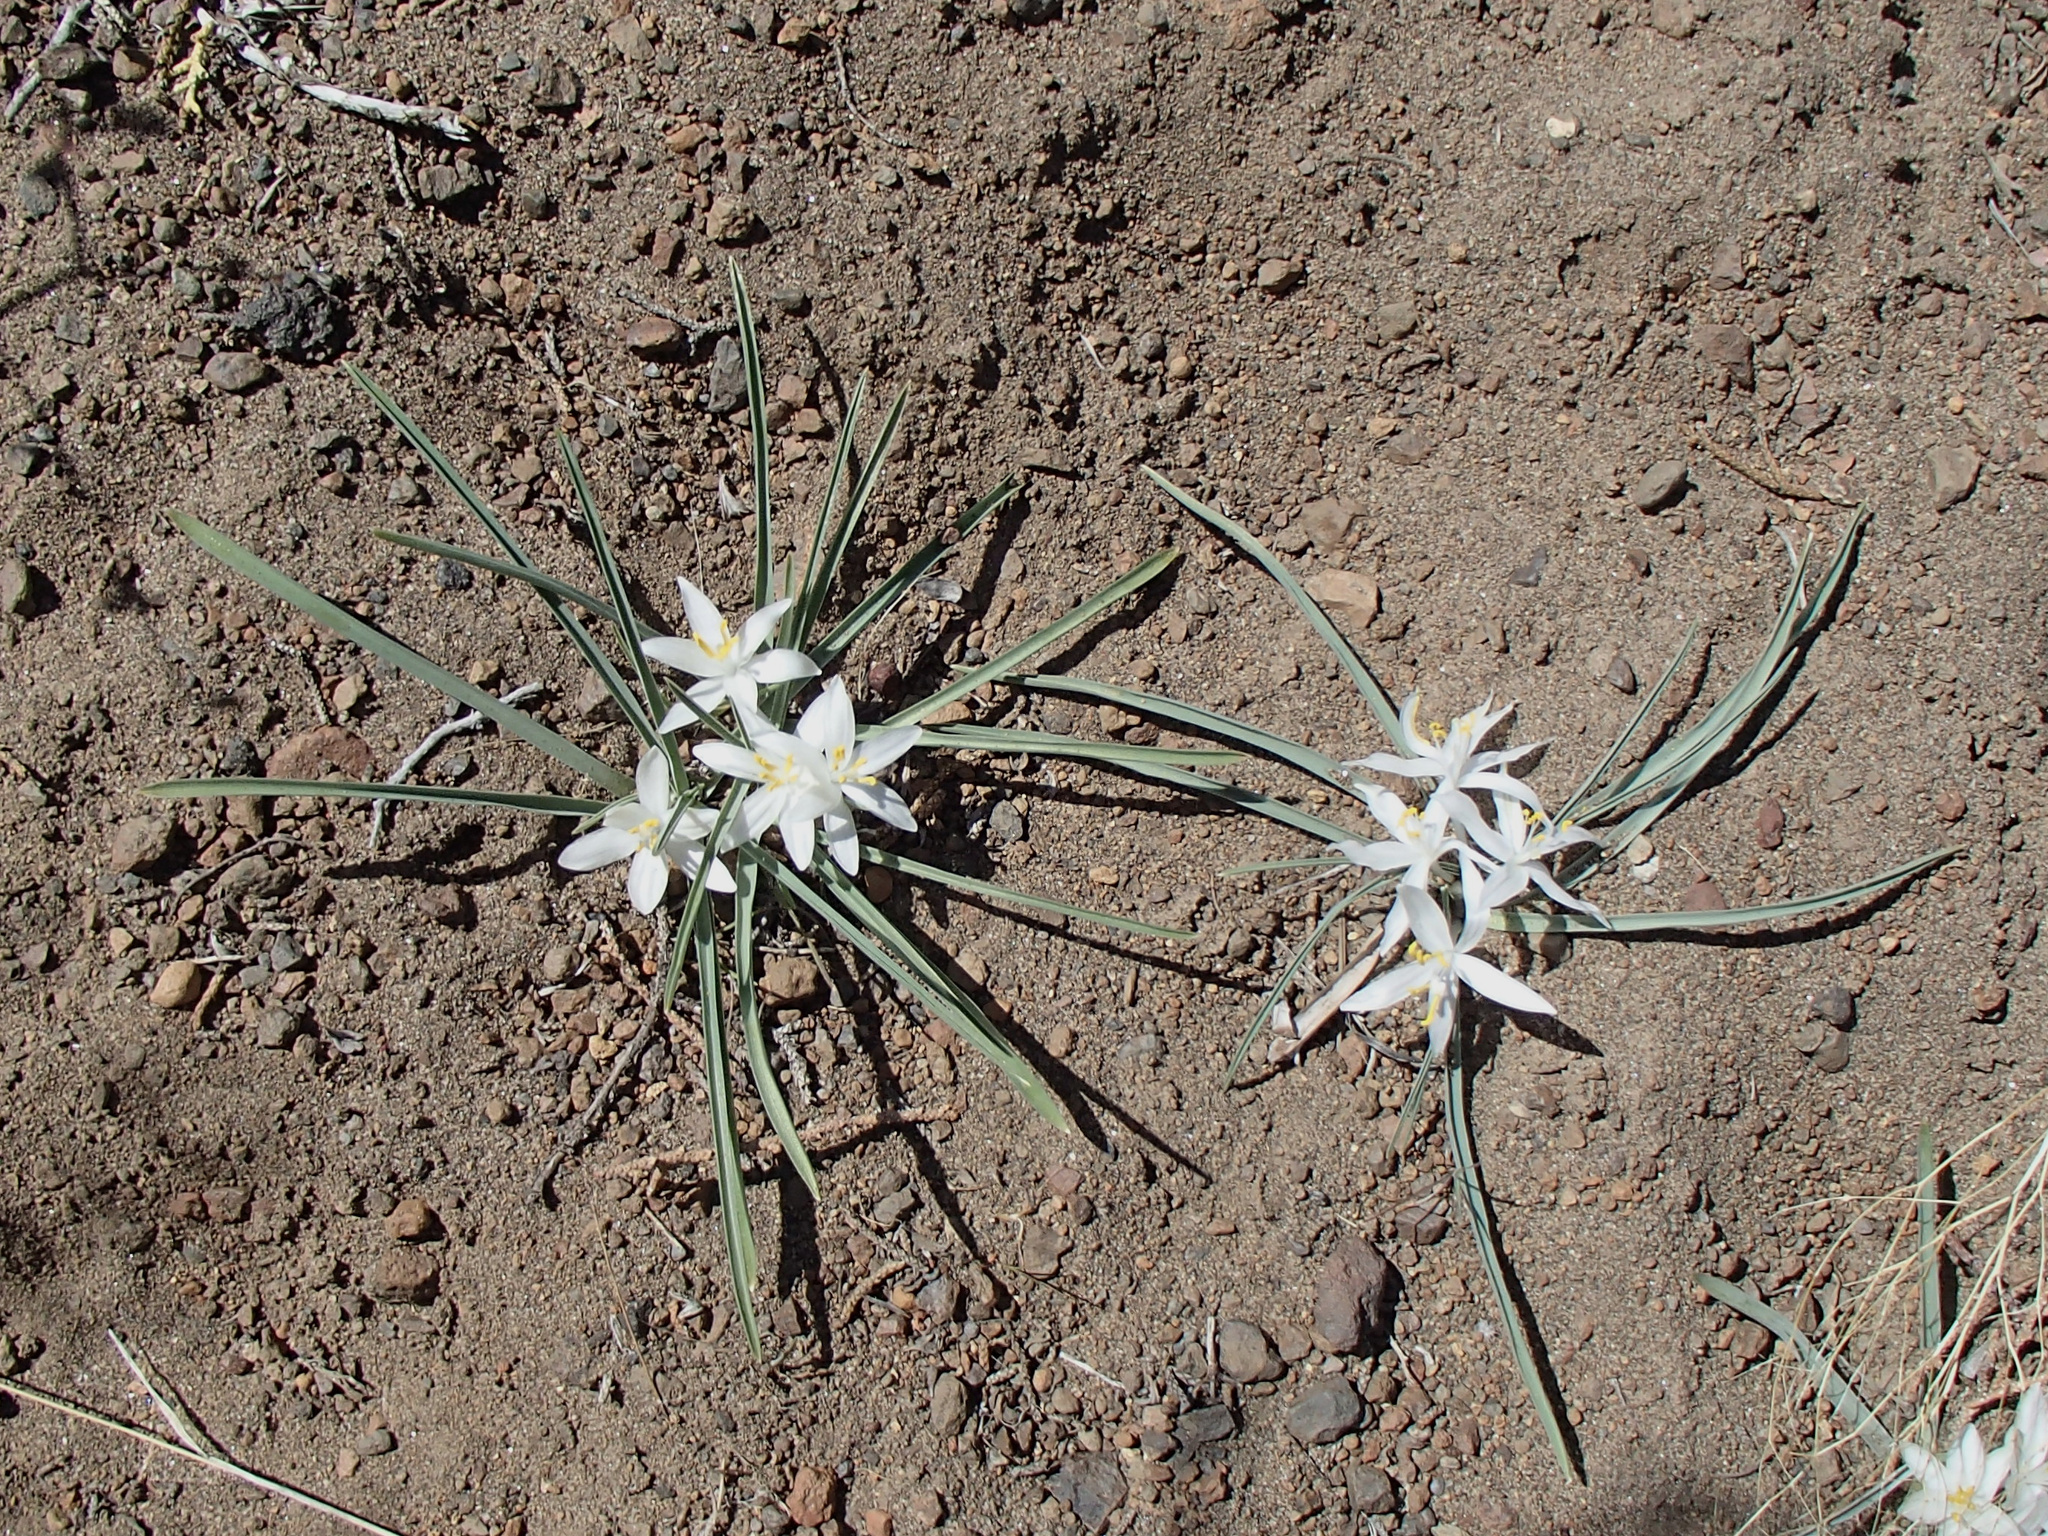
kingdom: Plantae
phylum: Tracheophyta
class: Liliopsida
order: Asparagales
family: Asparagaceae
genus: Leucocrinum
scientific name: Leucocrinum montanum
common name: Mountain-lily
